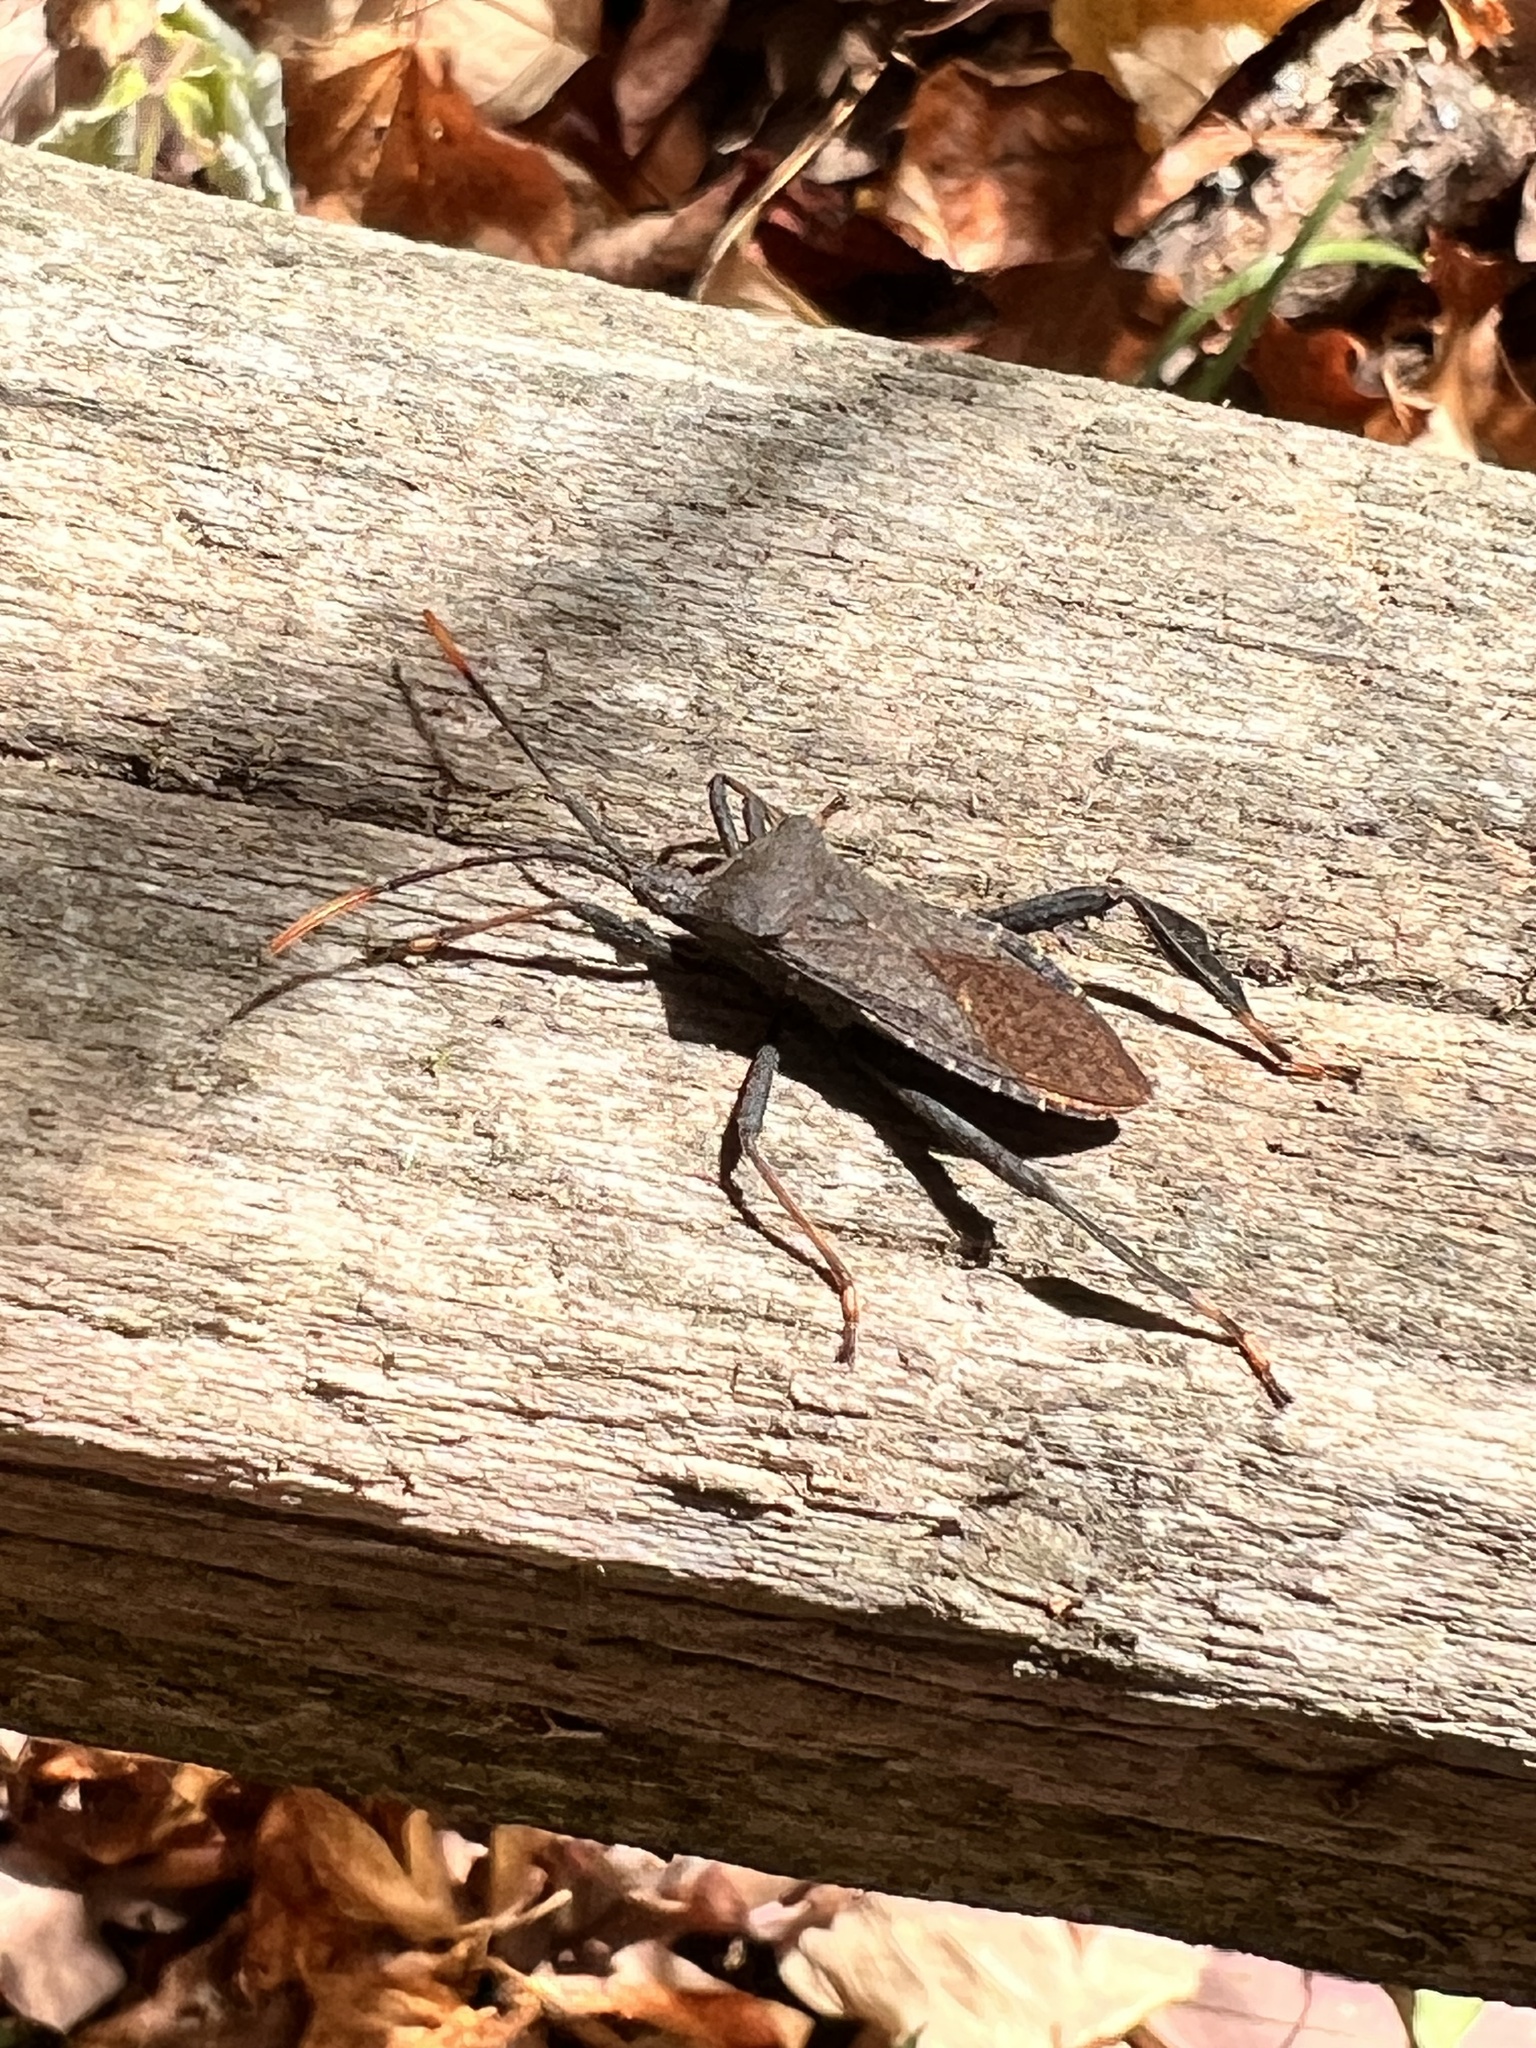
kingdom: Animalia
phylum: Arthropoda
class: Insecta
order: Hemiptera
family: Coreidae
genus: Acanthocephala
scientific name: Acanthocephala terminalis
